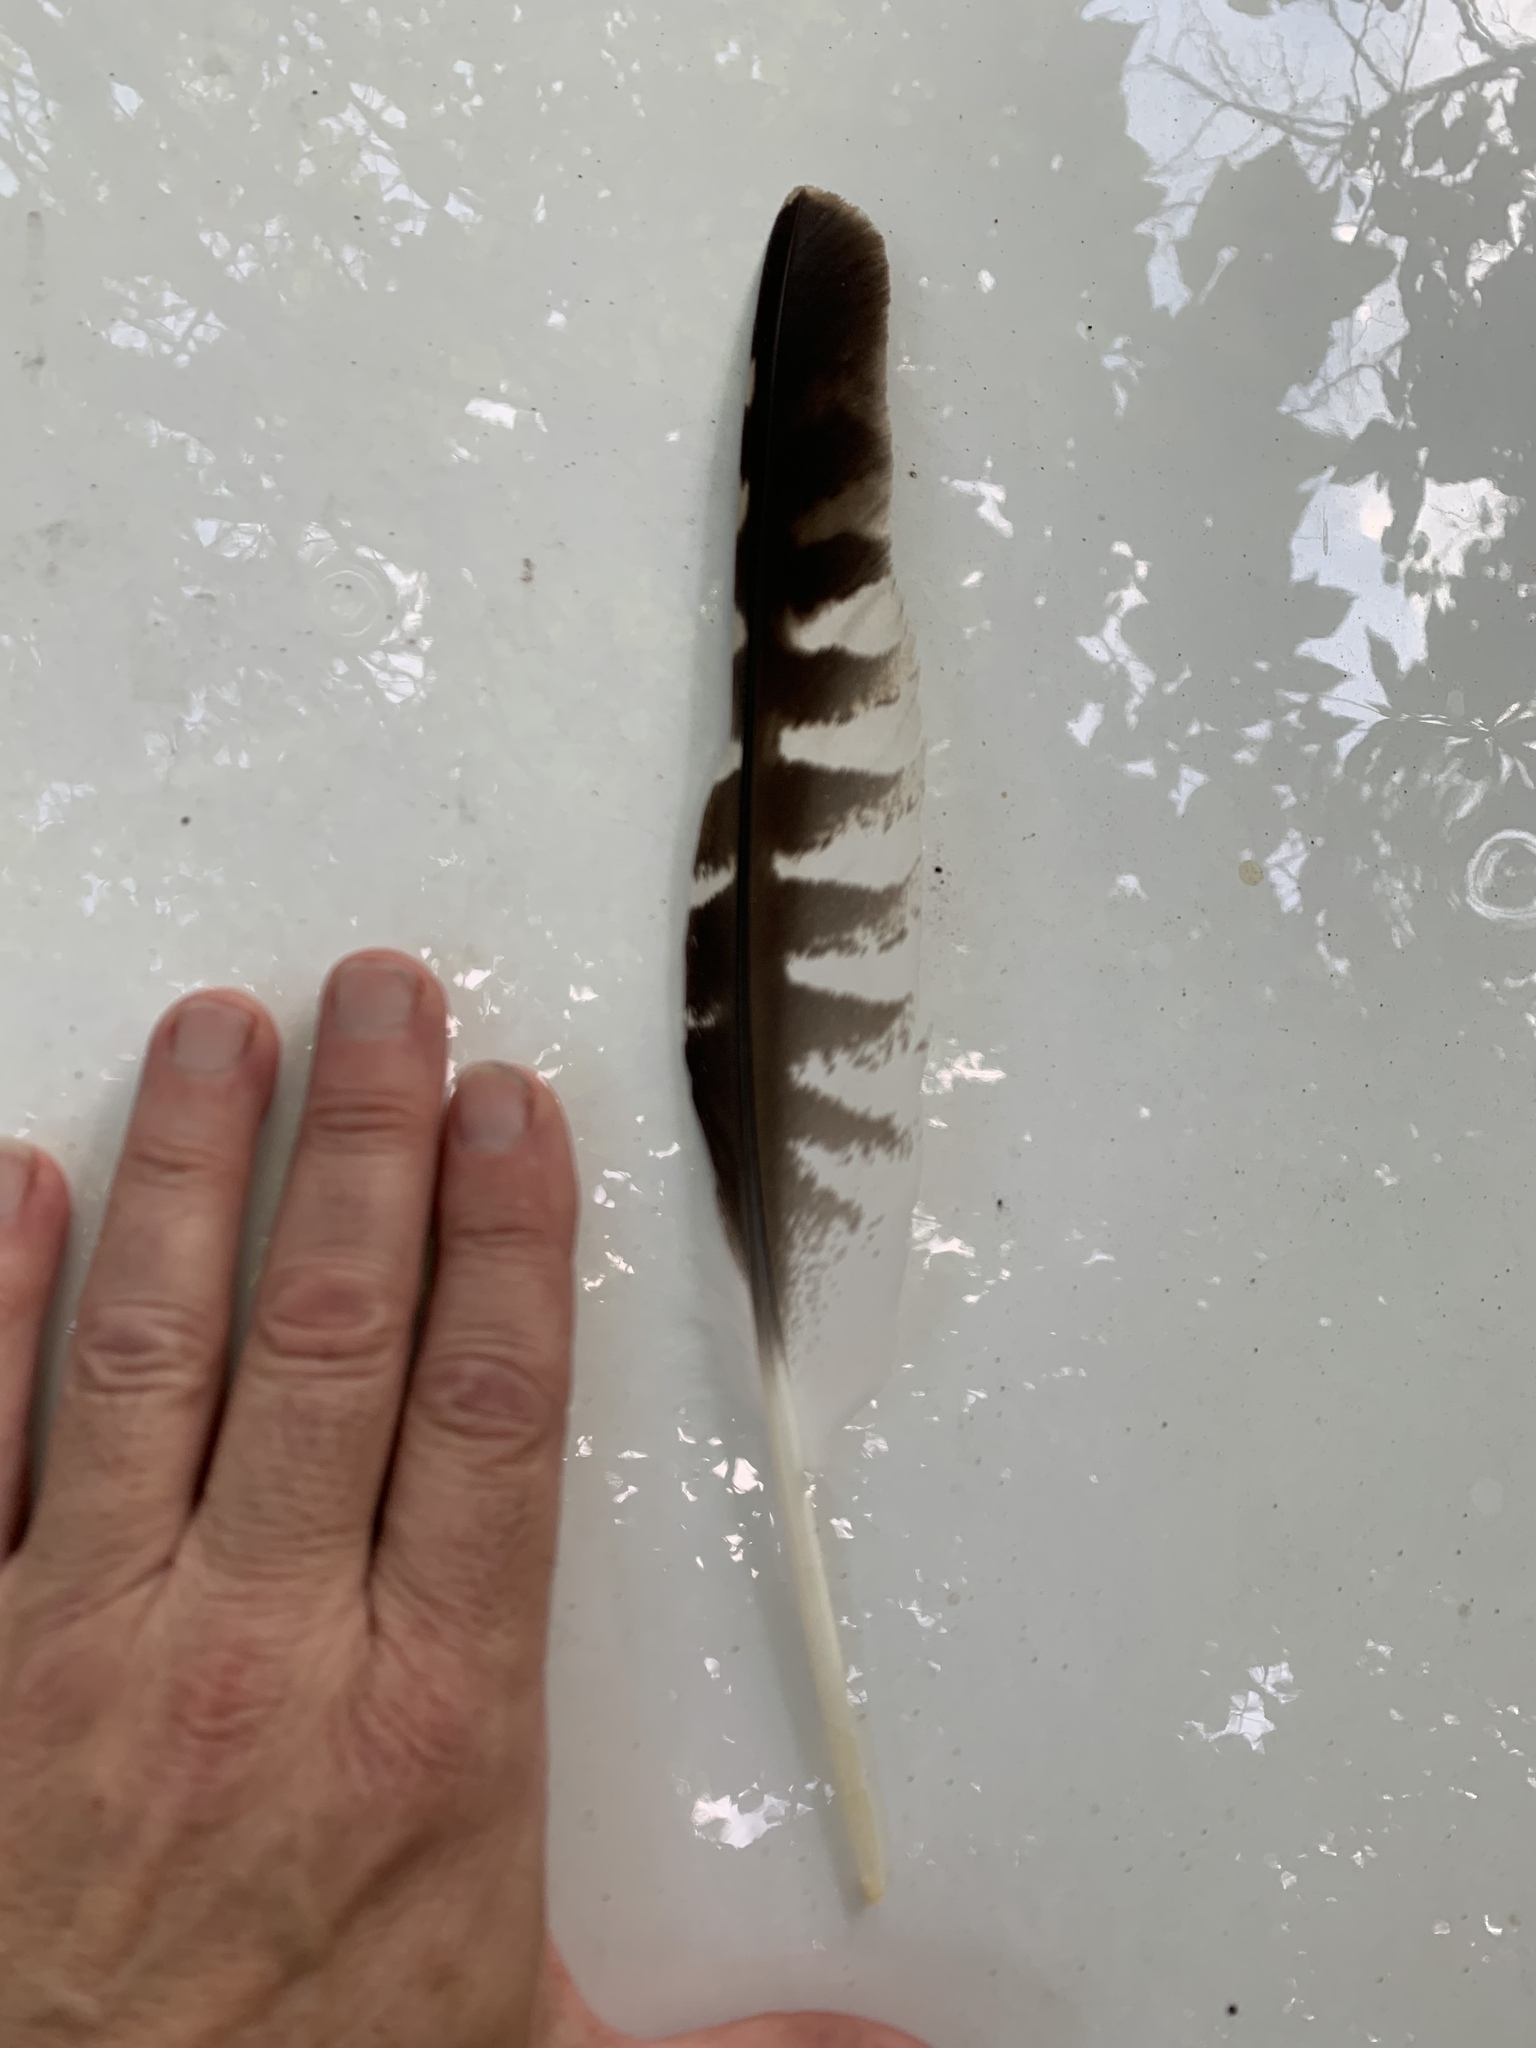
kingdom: Animalia
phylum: Chordata
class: Aves
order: Accipitriformes
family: Accipitridae
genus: Buteo
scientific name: Buteo lineatus
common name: Red-shouldered hawk
